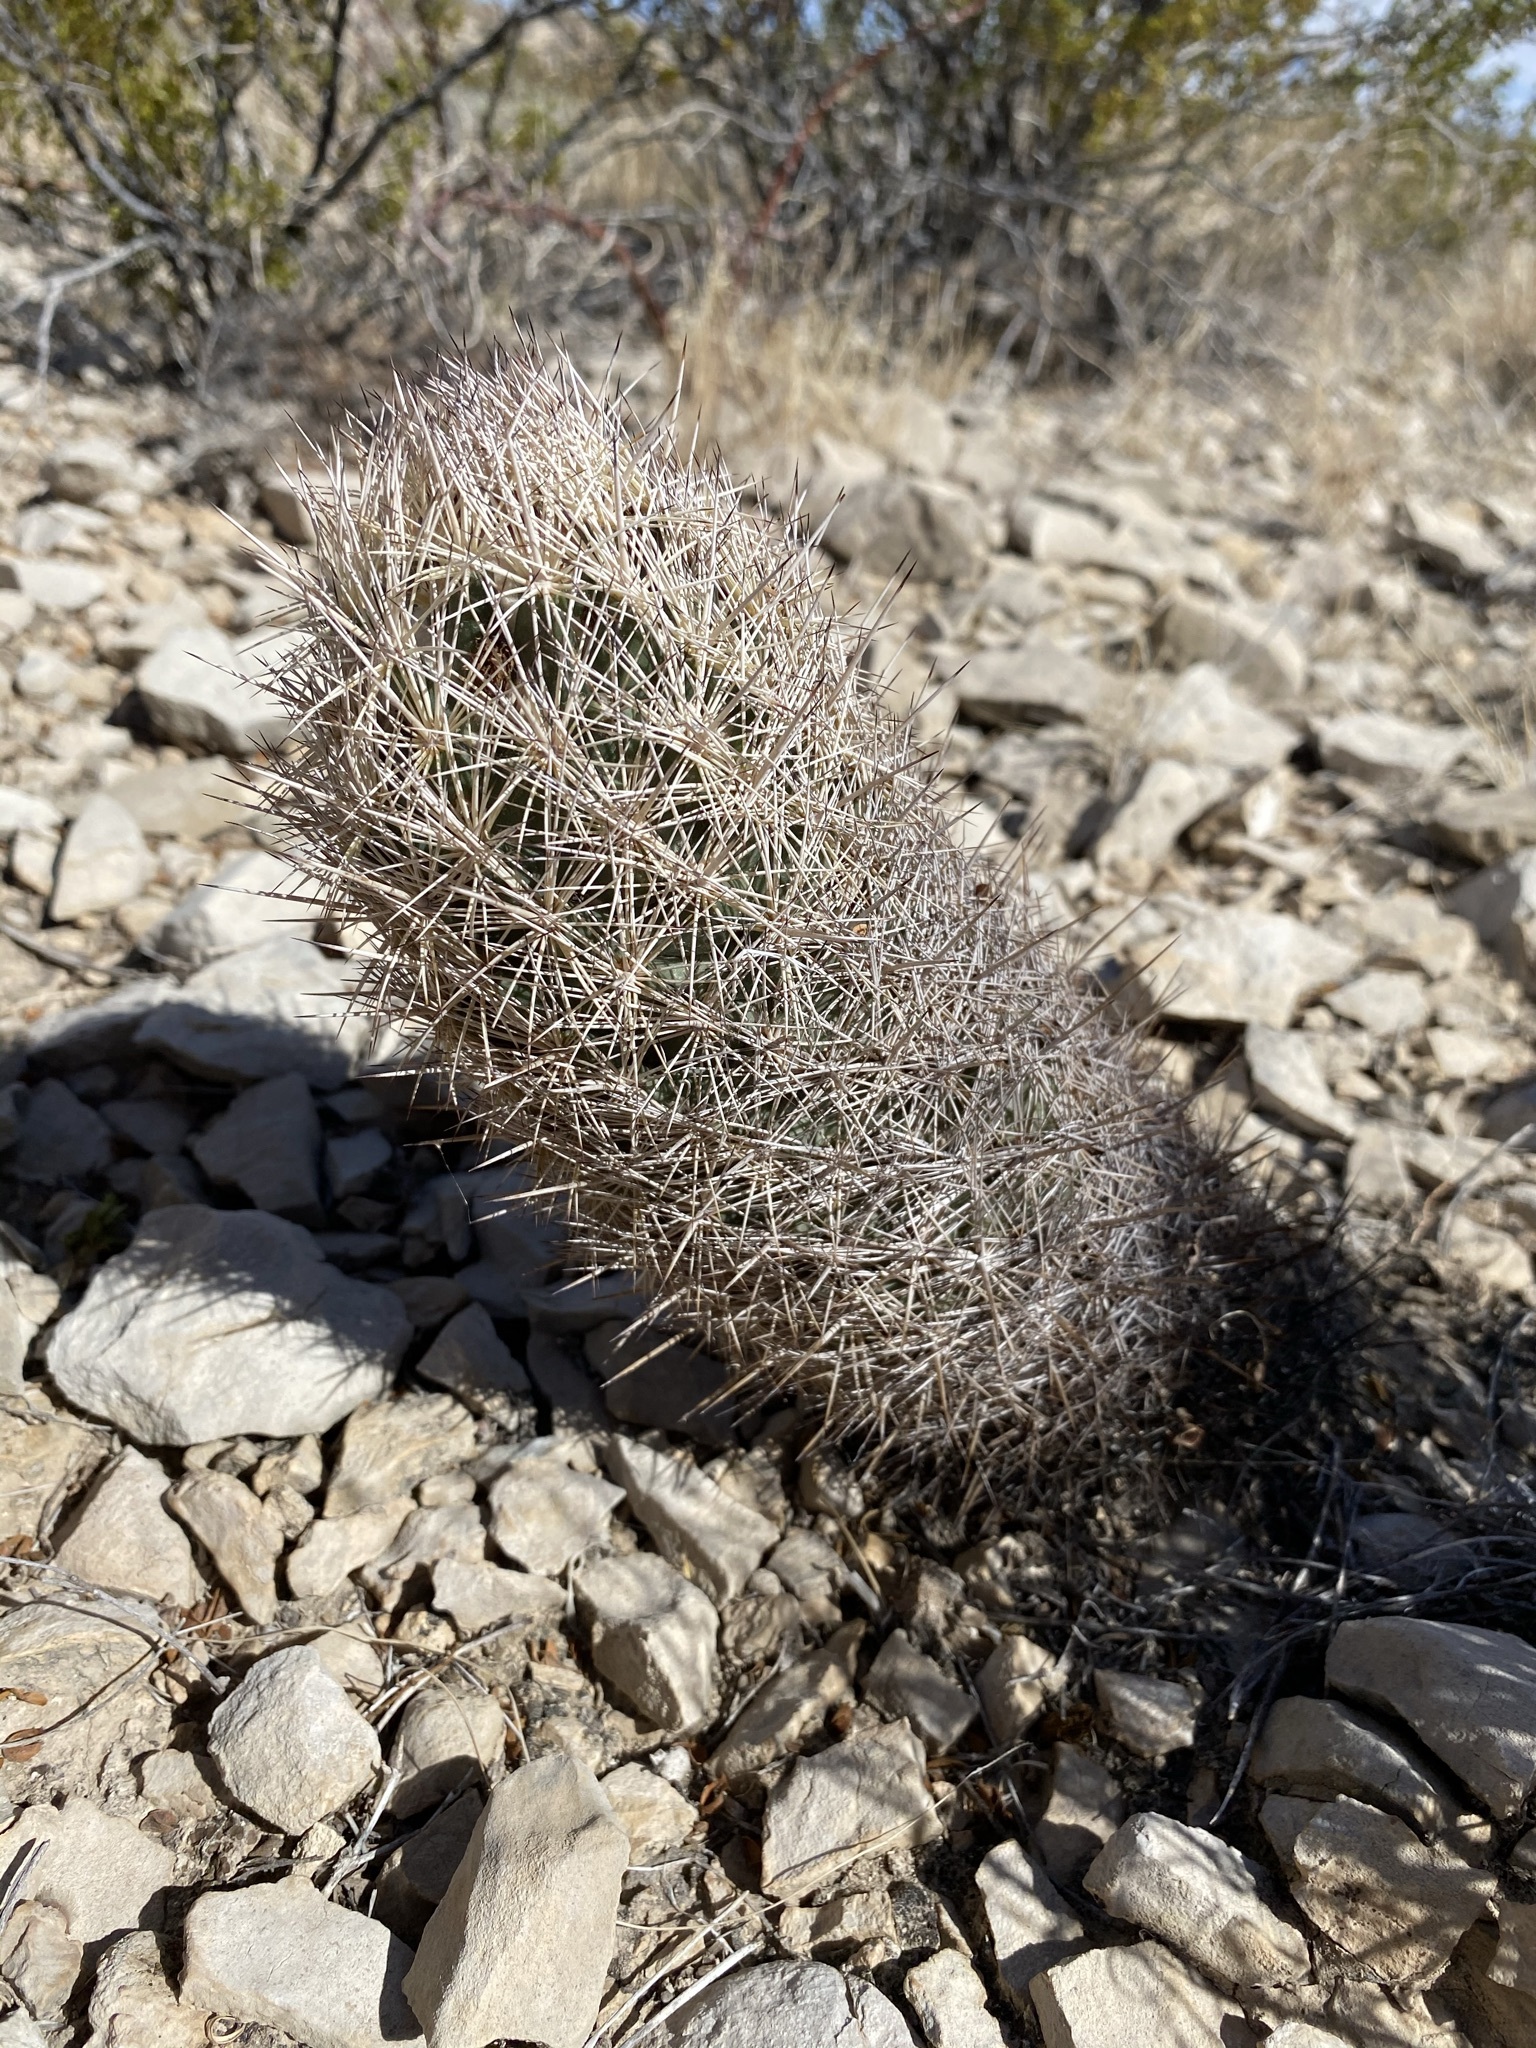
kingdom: Plantae
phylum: Tracheophyta
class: Magnoliopsida
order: Caryophyllales
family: Cactaceae
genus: Coryphantha
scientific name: Coryphantha echinus
